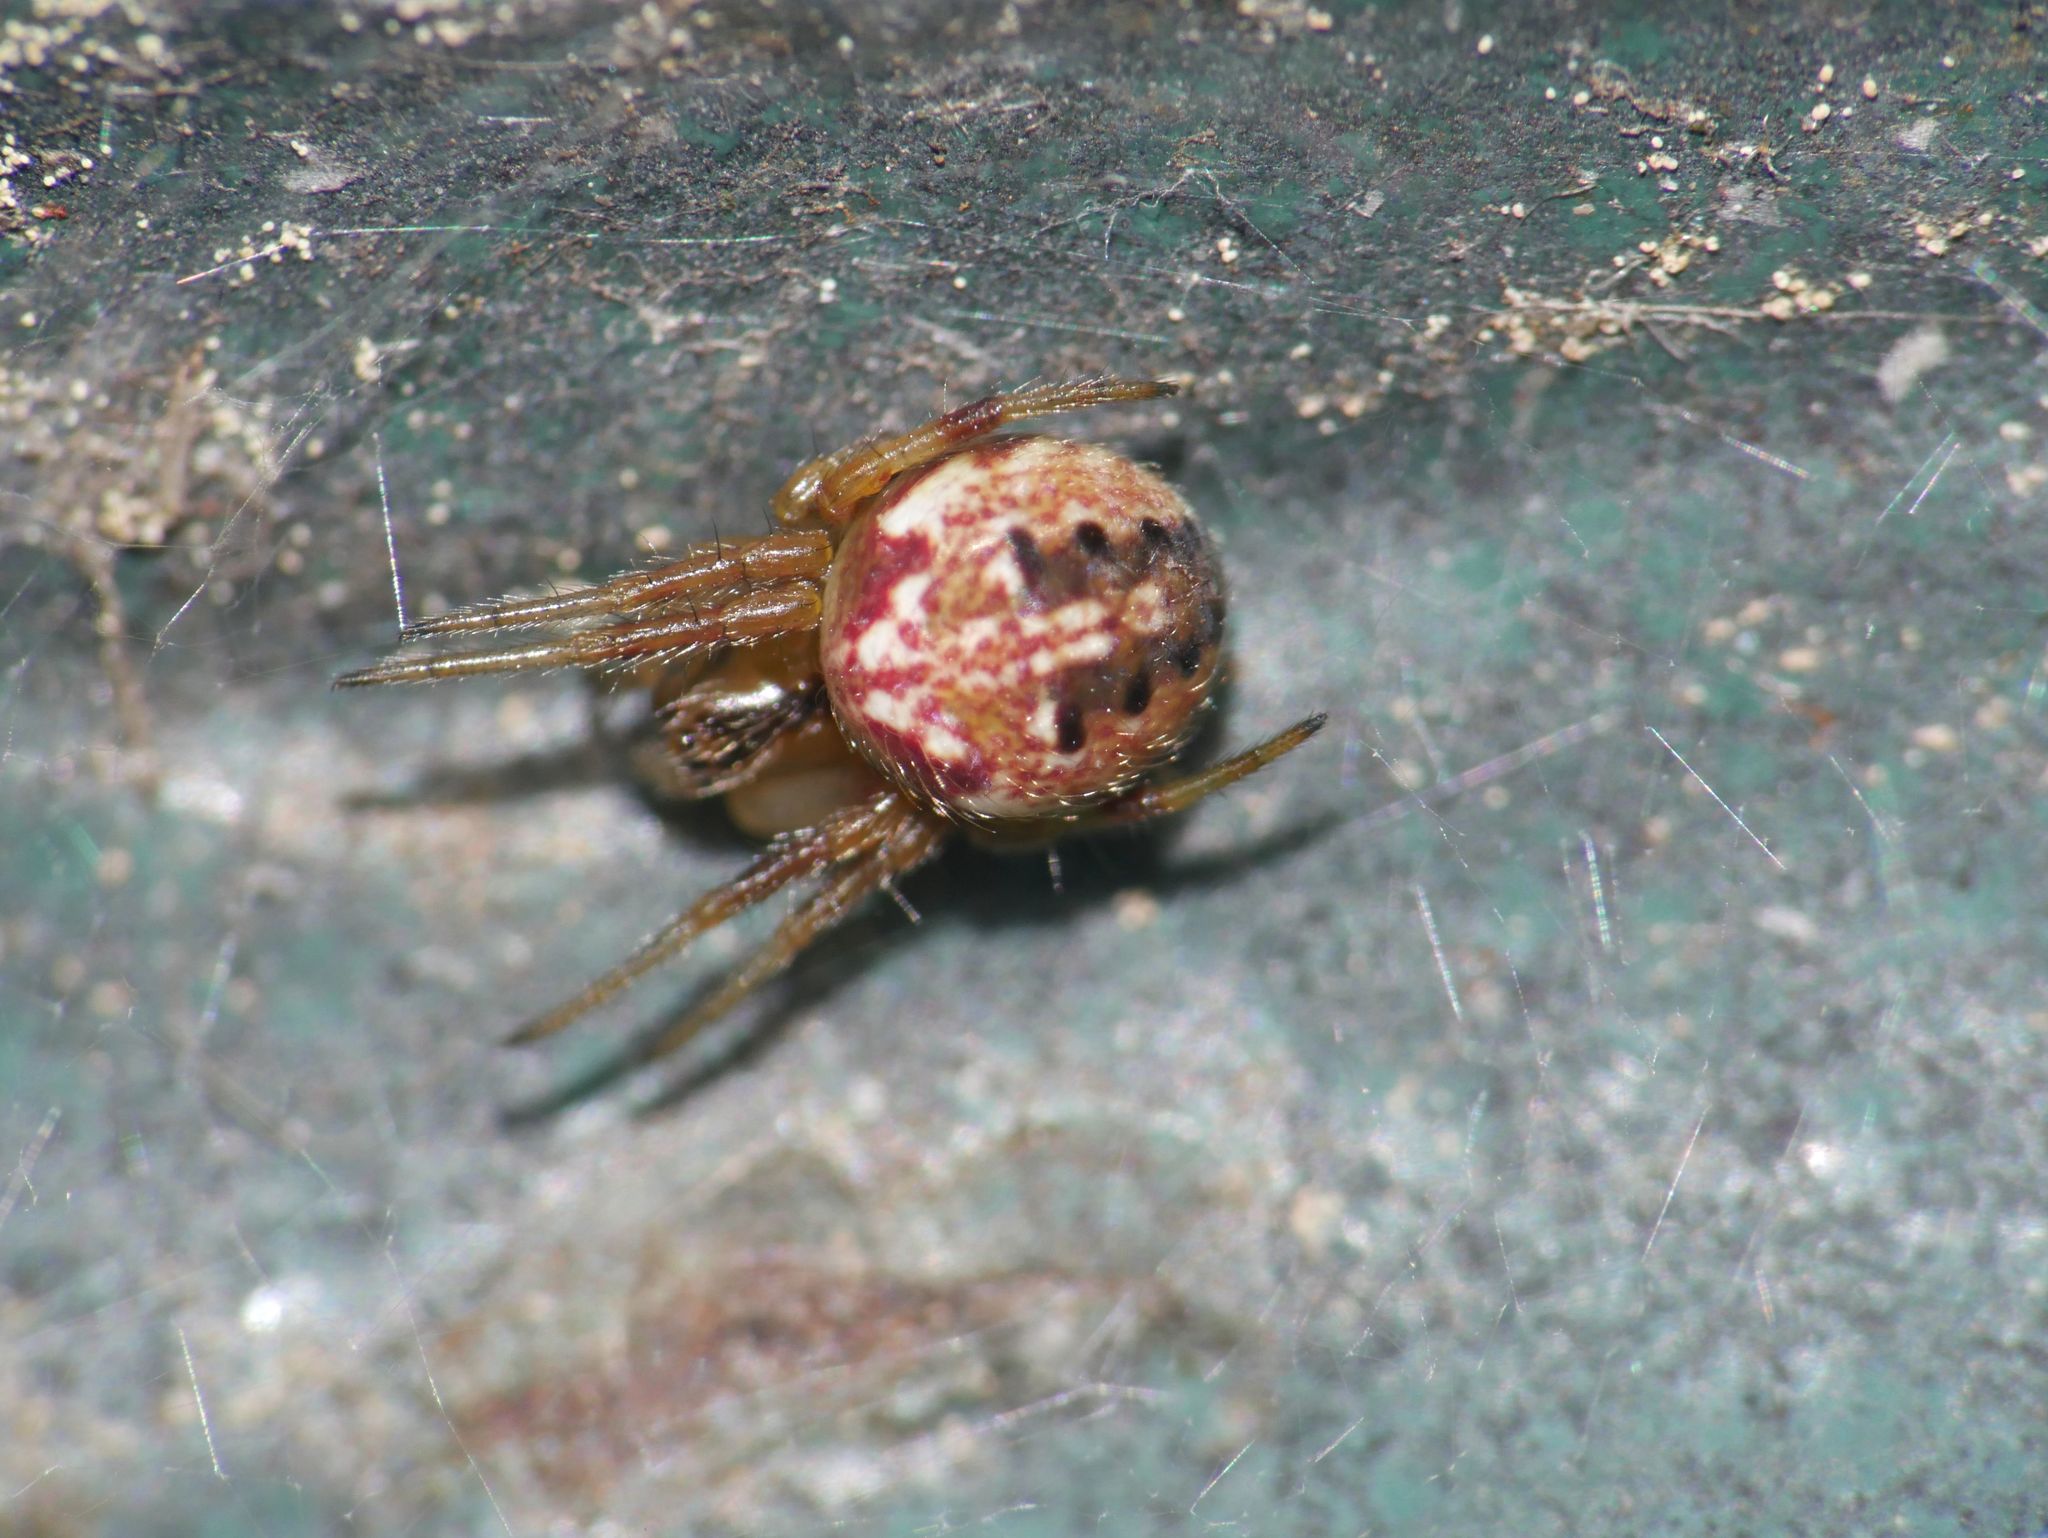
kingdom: Animalia
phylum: Arthropoda
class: Arachnida
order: Araneae
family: Araneidae
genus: Neoscona
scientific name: Neoscona arabesca
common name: Orb weavers
